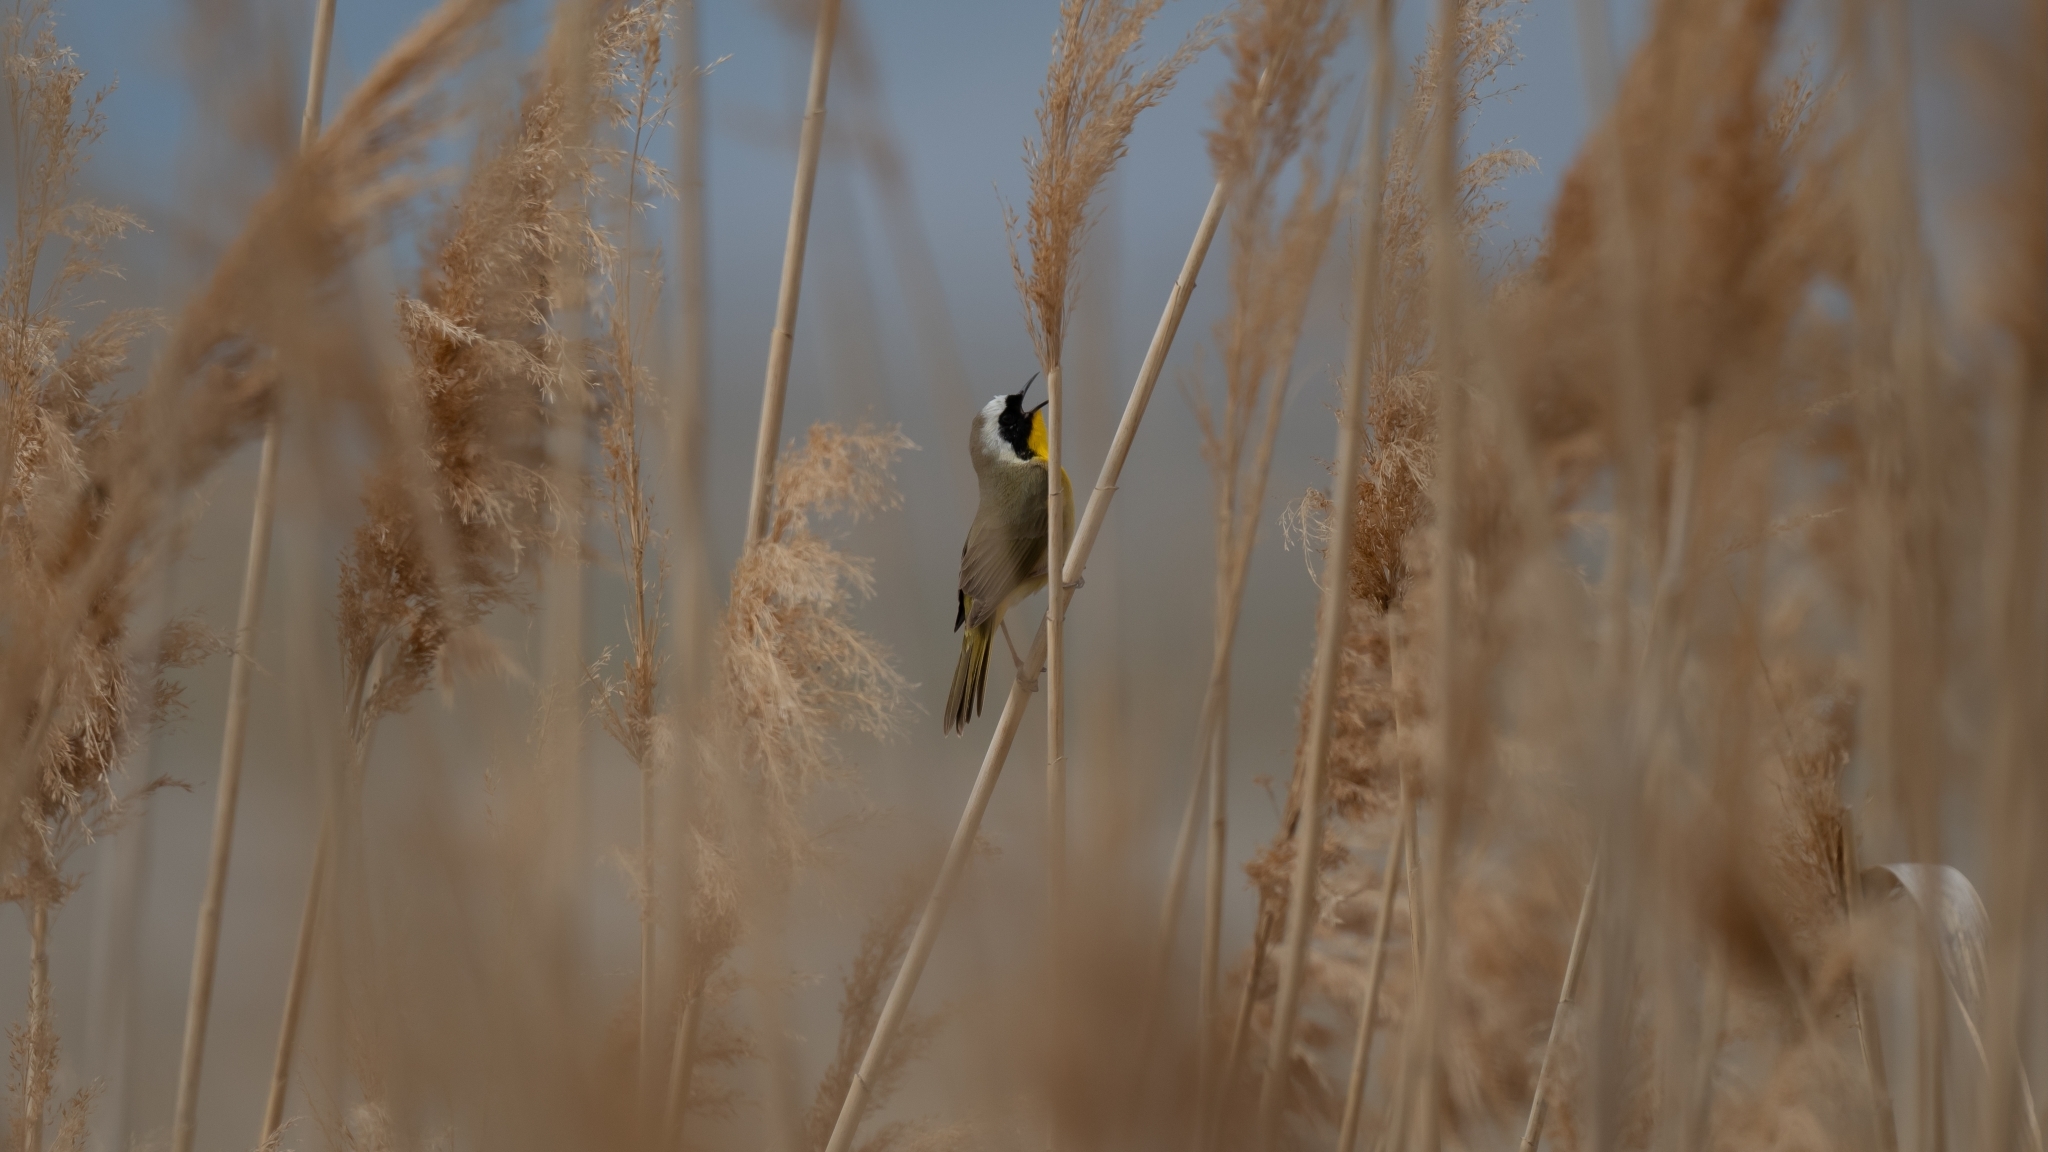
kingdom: Animalia
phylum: Chordata
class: Aves
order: Passeriformes
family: Parulidae
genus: Geothlypis
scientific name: Geothlypis trichas
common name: Common yellowthroat
